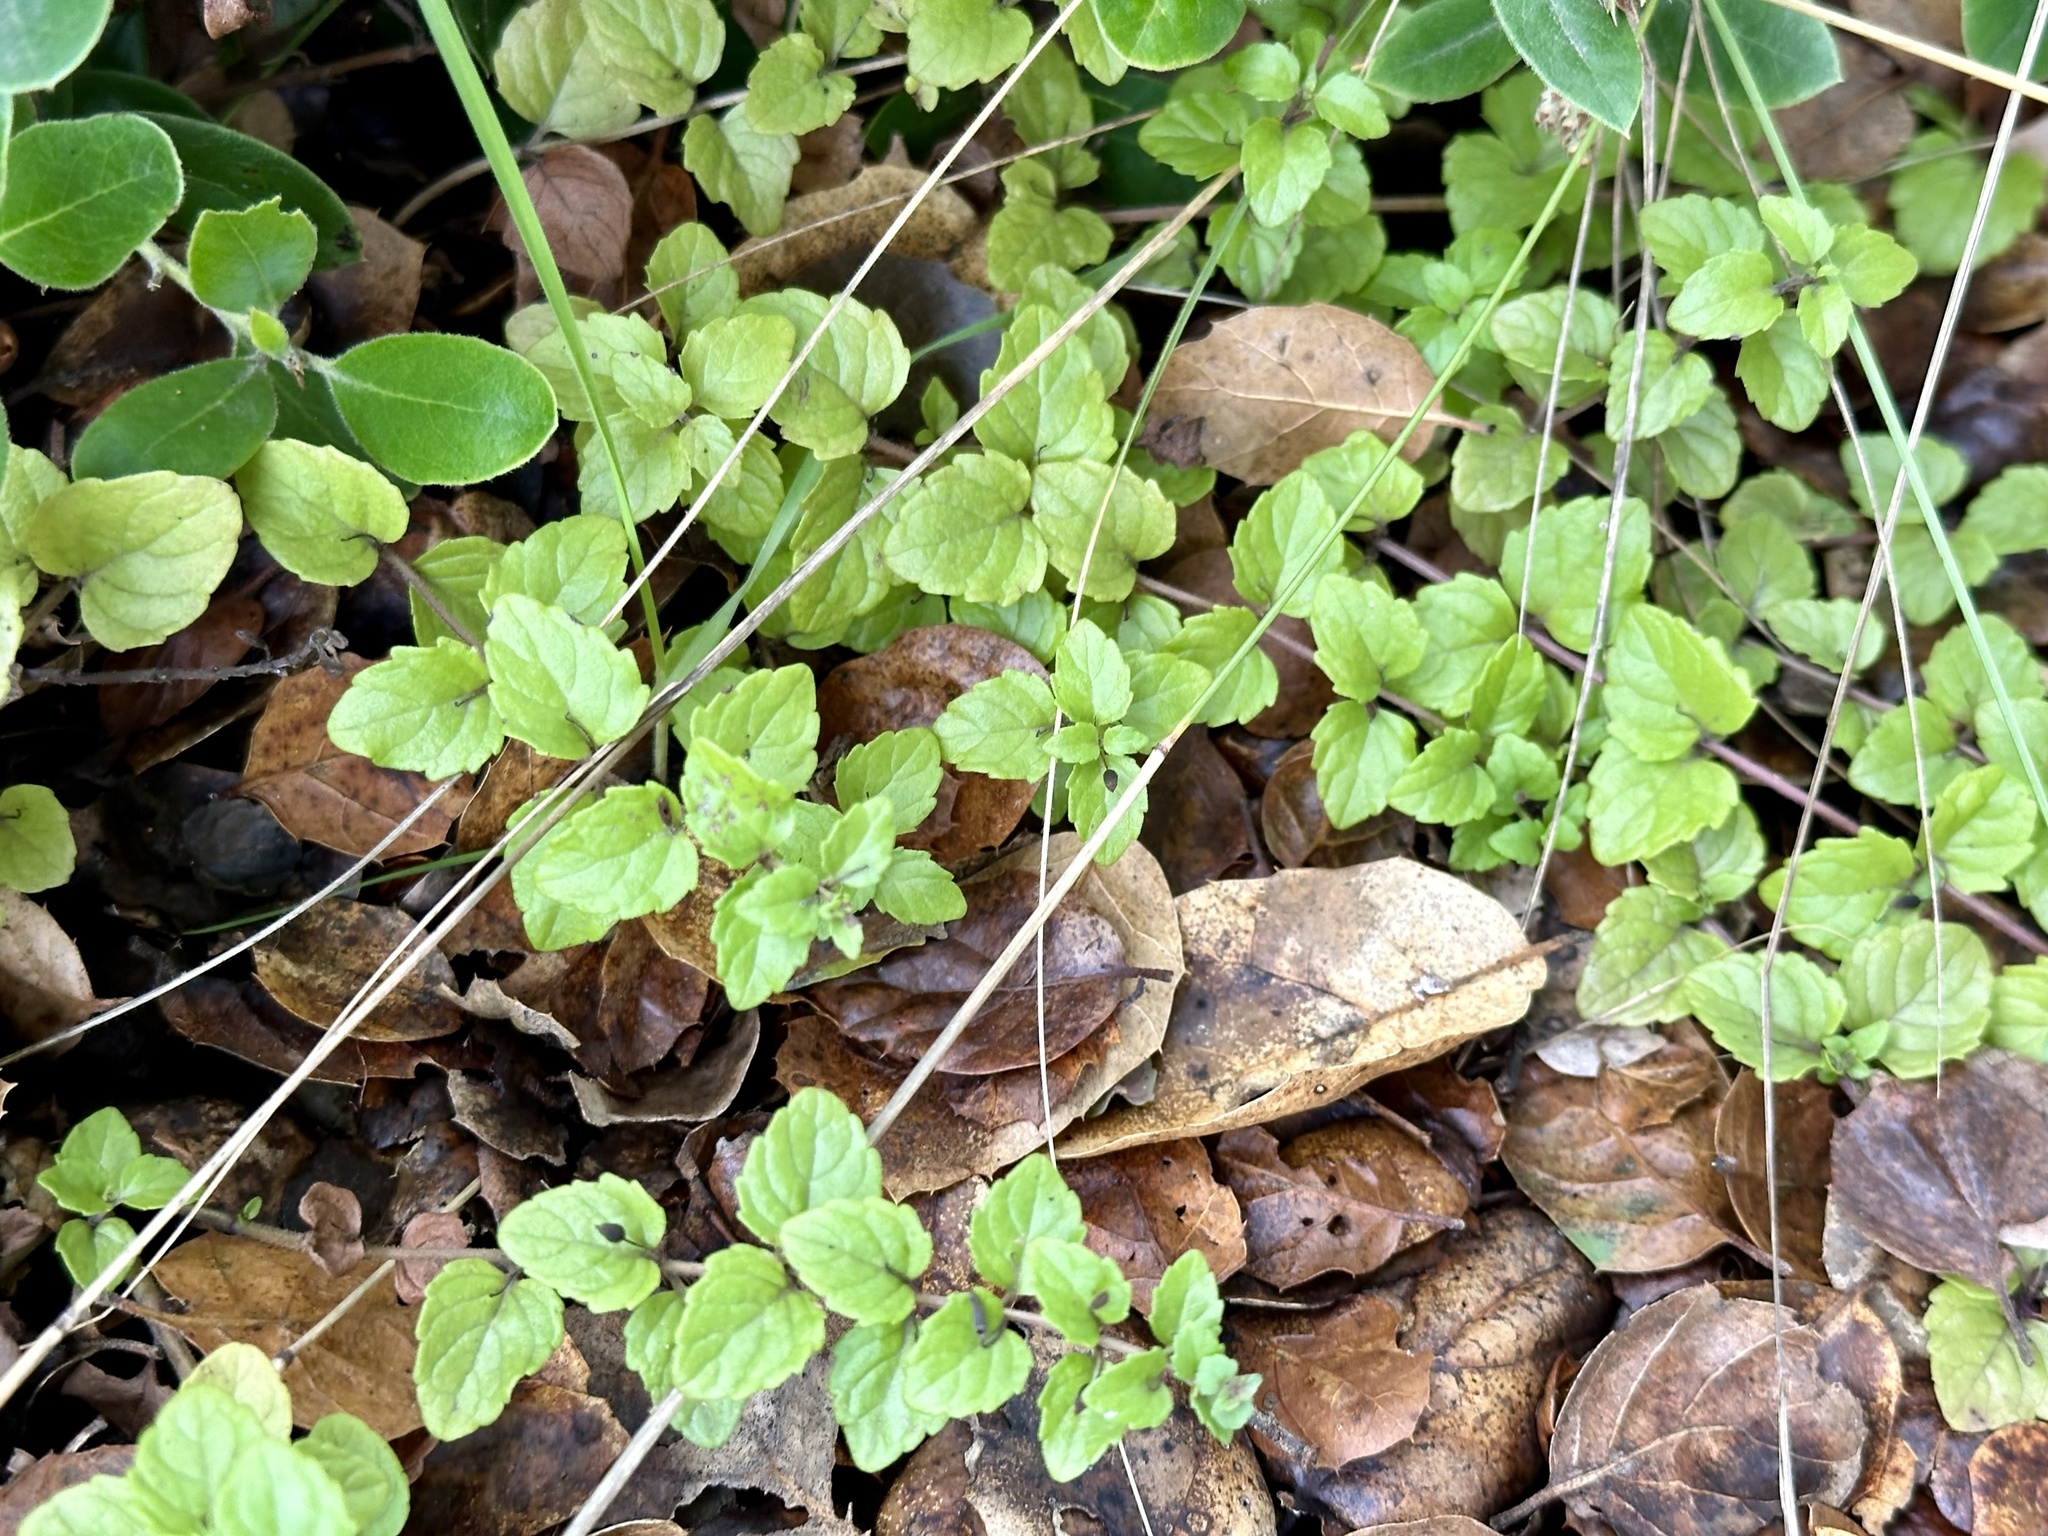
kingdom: Plantae
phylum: Tracheophyta
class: Magnoliopsida
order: Lamiales
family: Lamiaceae
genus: Micromeria
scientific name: Micromeria douglasii
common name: Yerba buena
